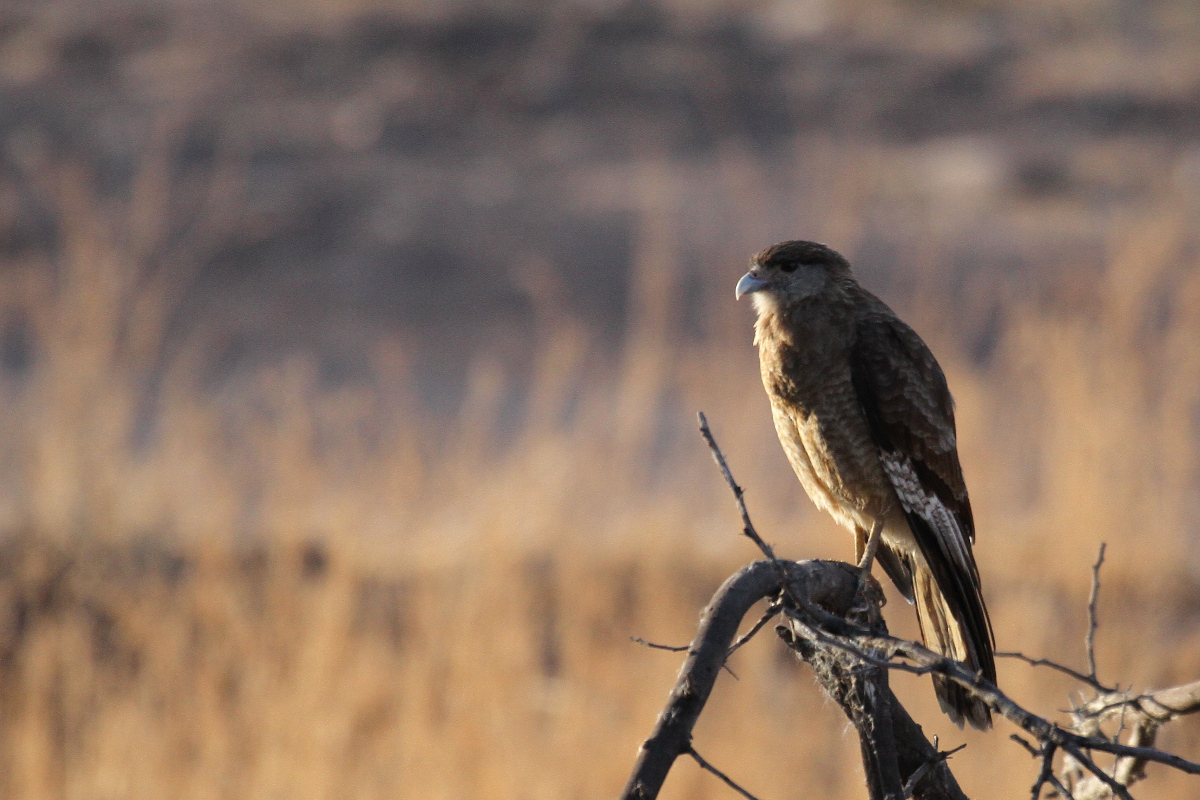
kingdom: Animalia
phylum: Chordata
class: Aves
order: Falconiformes
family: Falconidae
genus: Daptrius
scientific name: Daptrius
